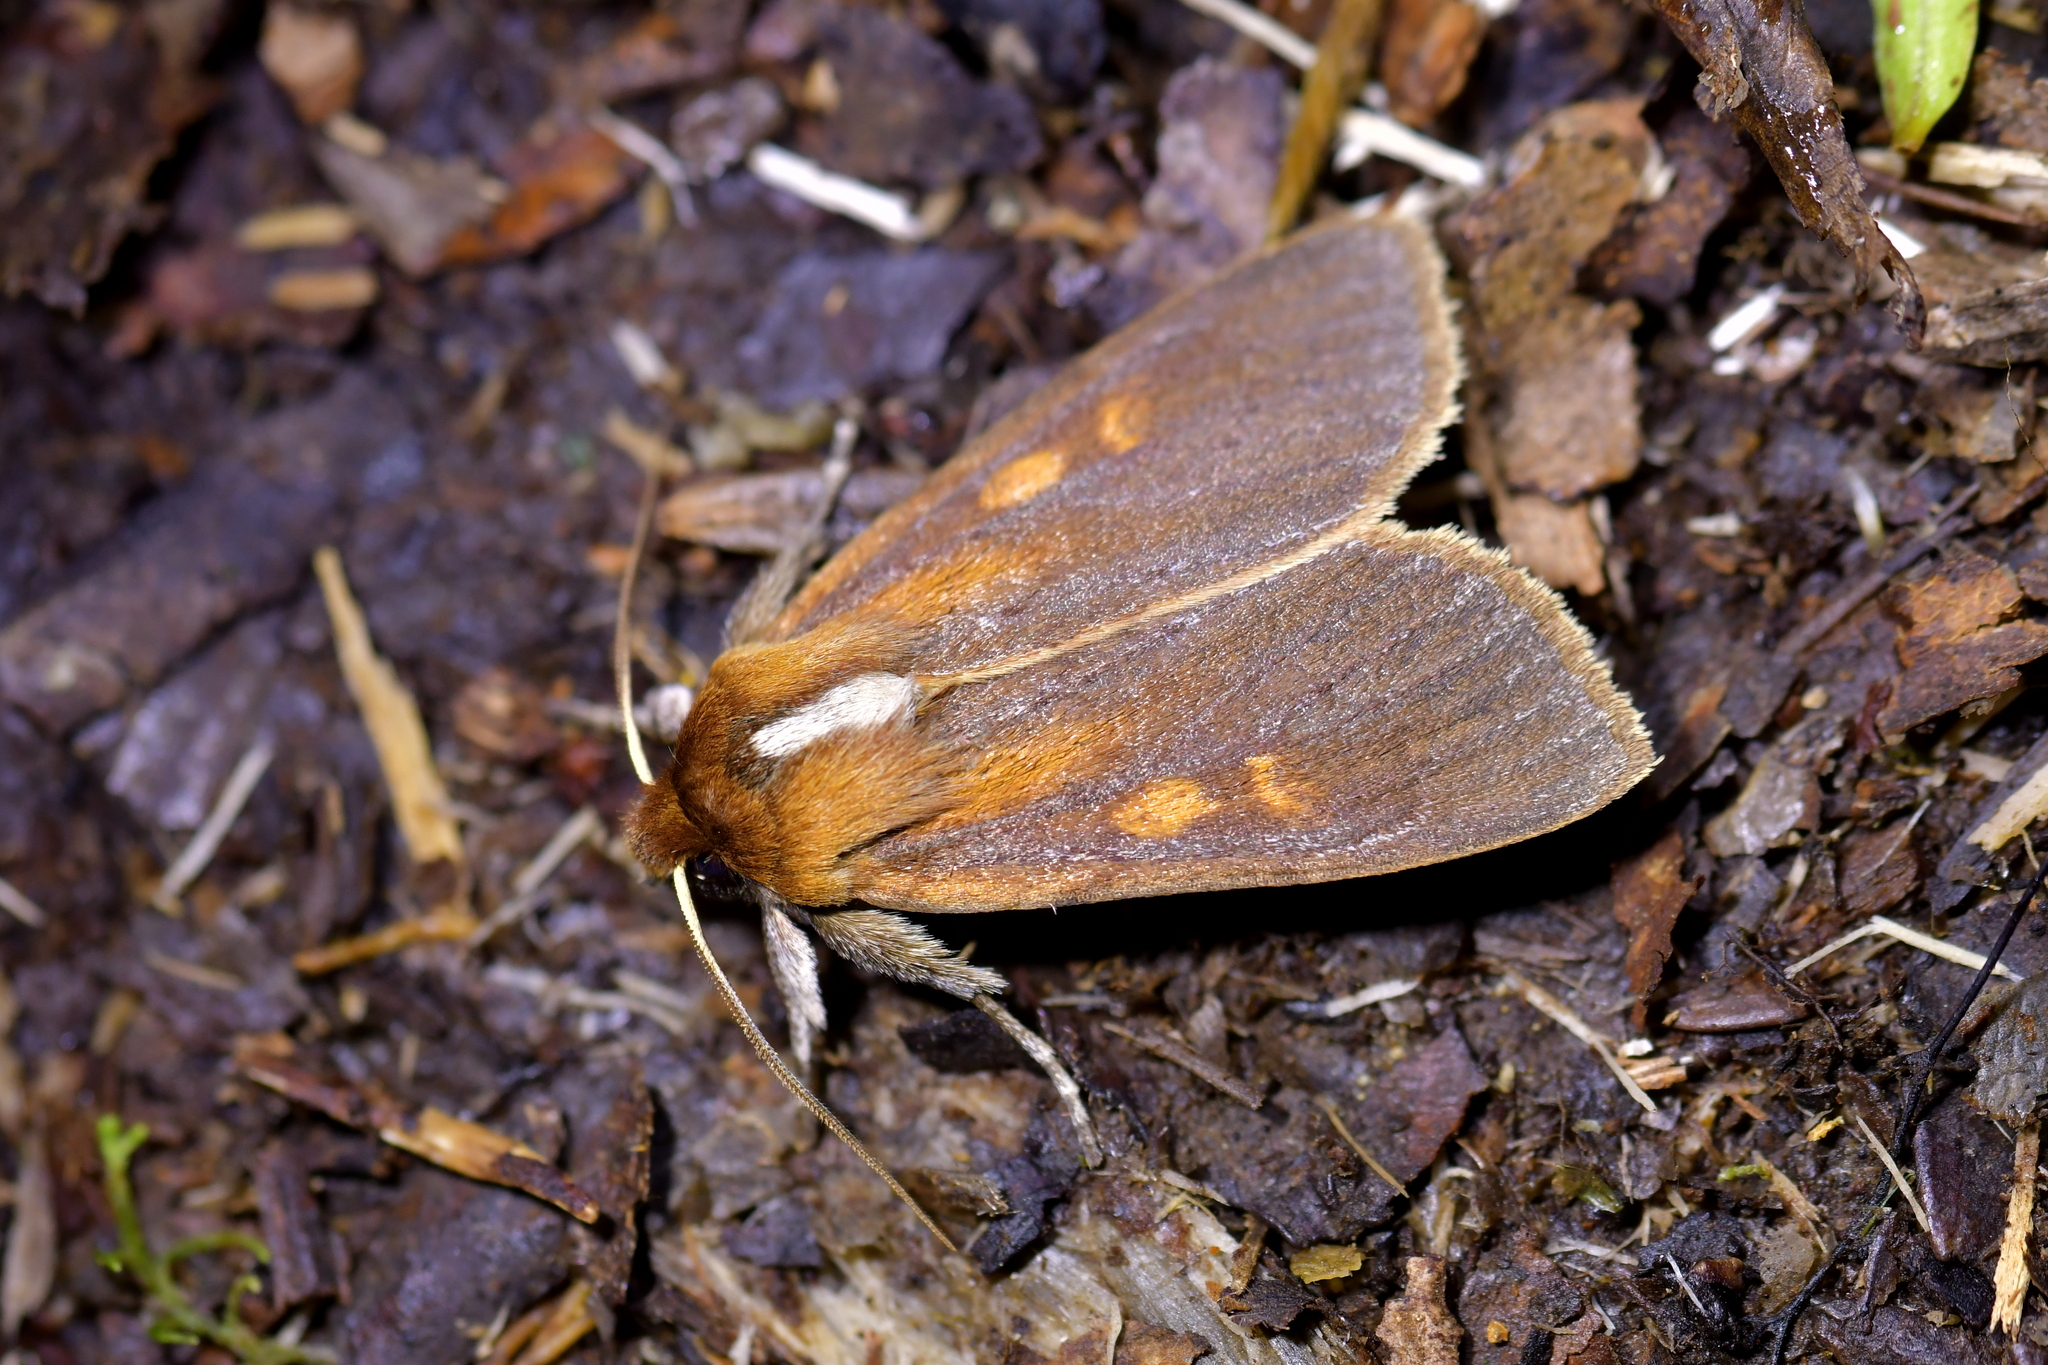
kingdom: Animalia
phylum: Arthropoda
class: Insecta
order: Lepidoptera
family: Noctuidae
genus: Ichneutica
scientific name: Ichneutica
